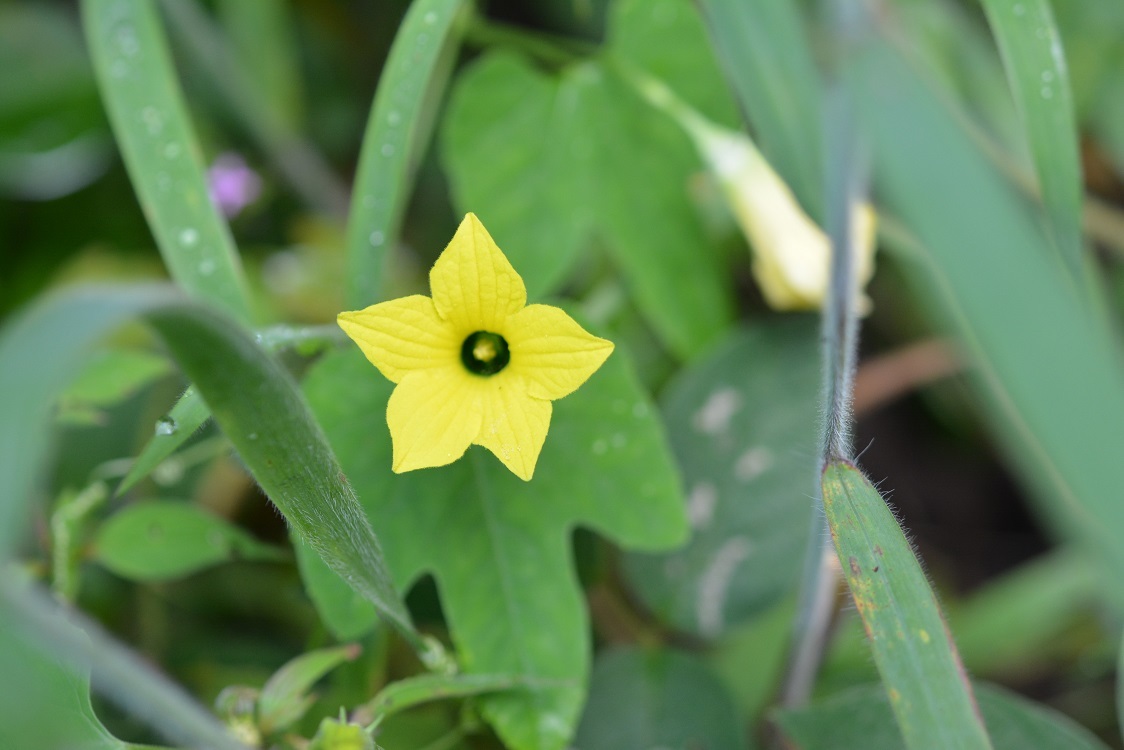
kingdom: Plantae
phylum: Tracheophyta
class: Magnoliopsida
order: Cucurbitales
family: Cucurbitaceae
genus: Schizocarpum
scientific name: Schizocarpum longisepalum
